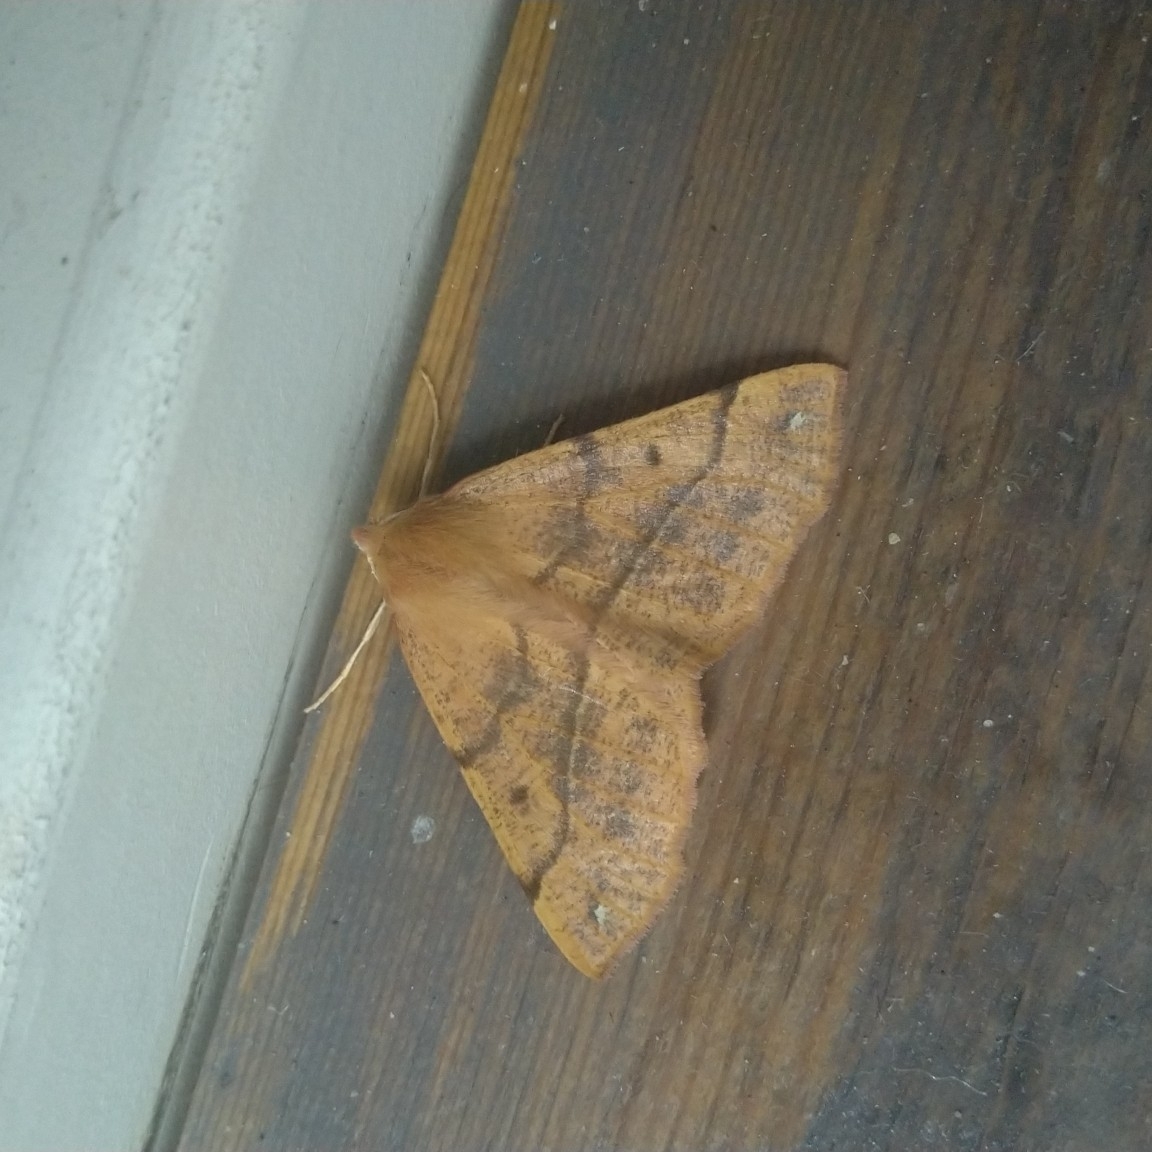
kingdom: Animalia
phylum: Arthropoda
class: Insecta
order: Lepidoptera
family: Geometridae
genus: Colotois
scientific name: Colotois pennaria
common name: Feathered thorn
